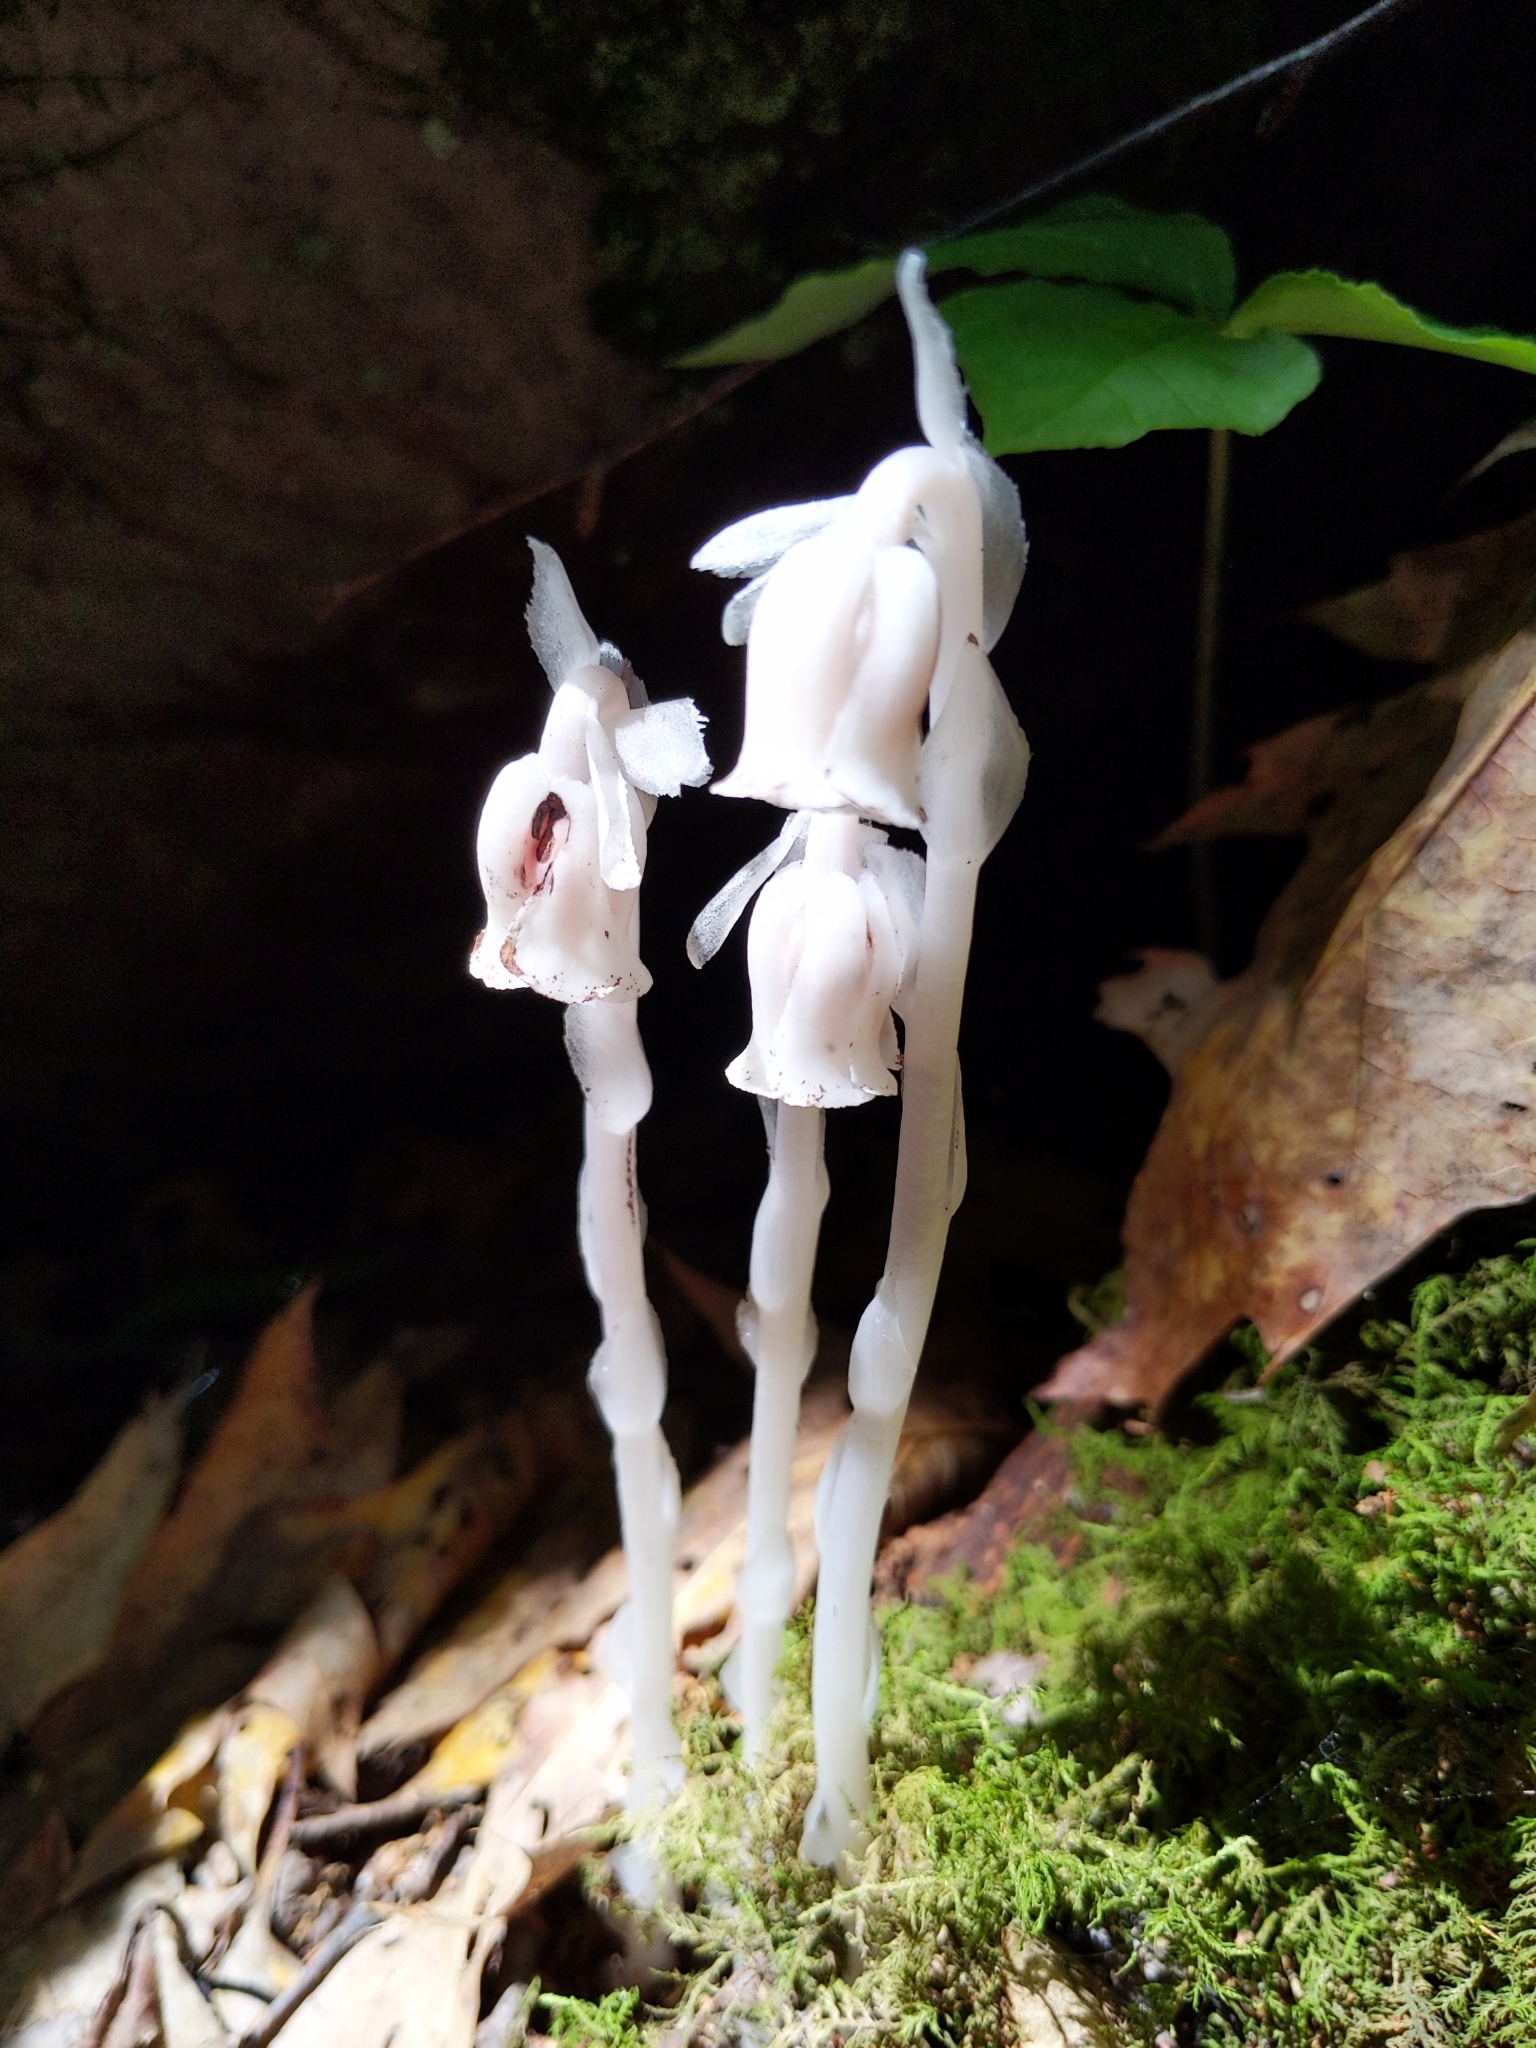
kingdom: Plantae
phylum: Tracheophyta
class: Magnoliopsida
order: Ericales
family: Ericaceae
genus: Monotropa
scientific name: Monotropa uniflora
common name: Convulsion root
